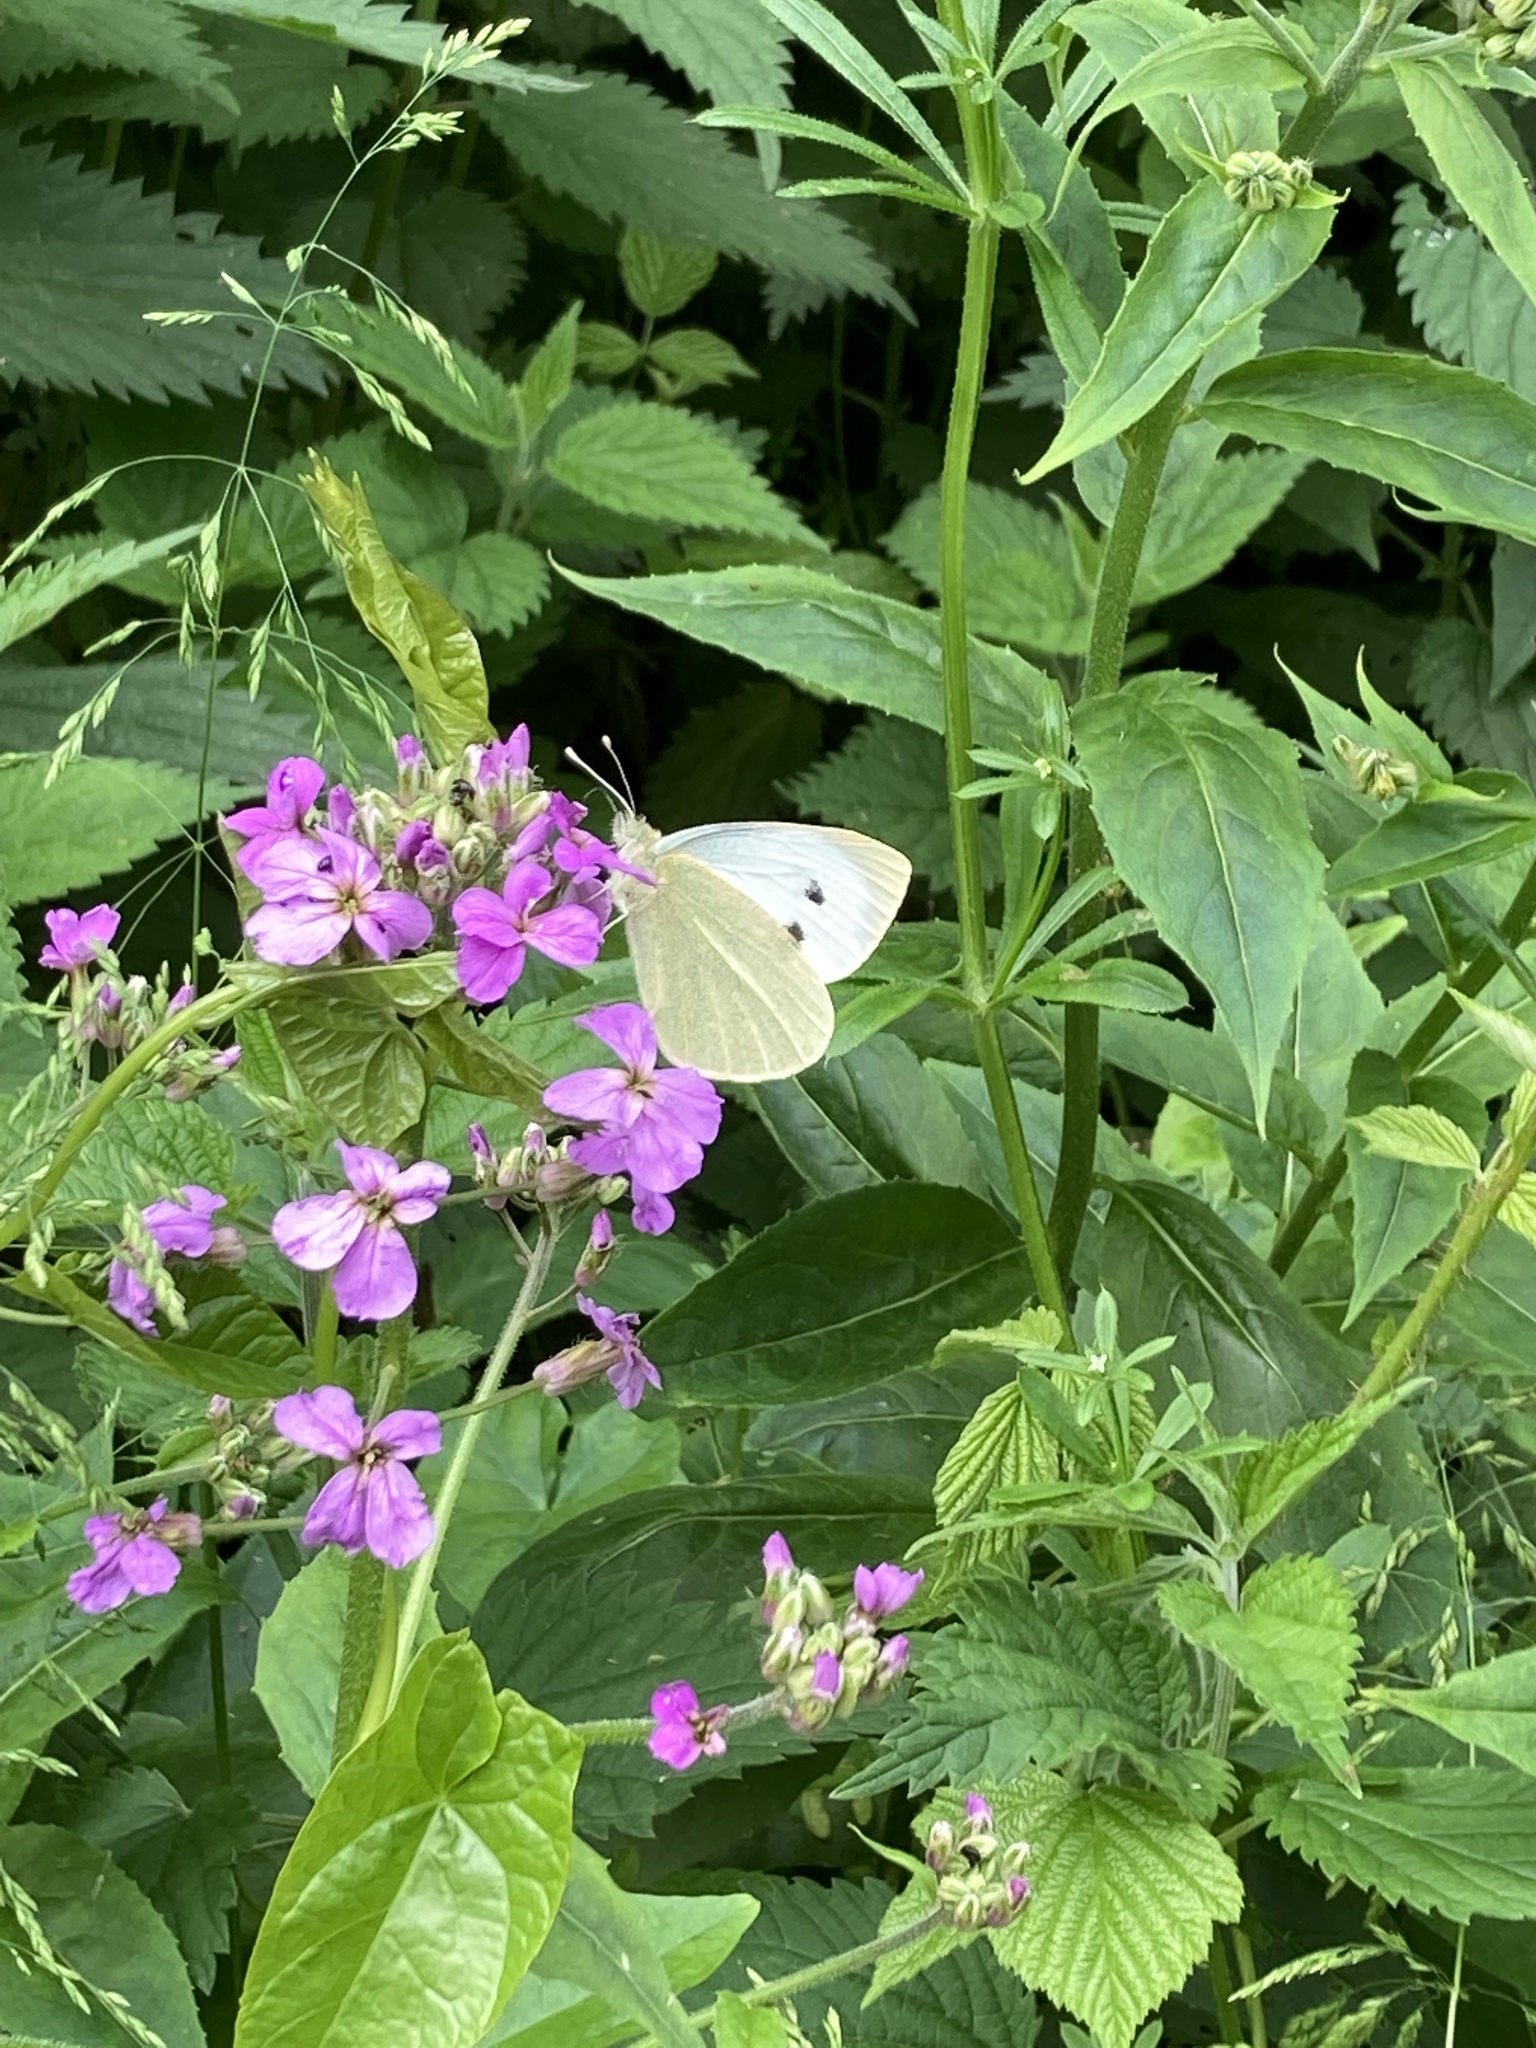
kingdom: Animalia
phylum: Arthropoda
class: Insecta
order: Lepidoptera
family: Pieridae
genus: Pieris
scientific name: Pieris brassicae
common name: Large white
